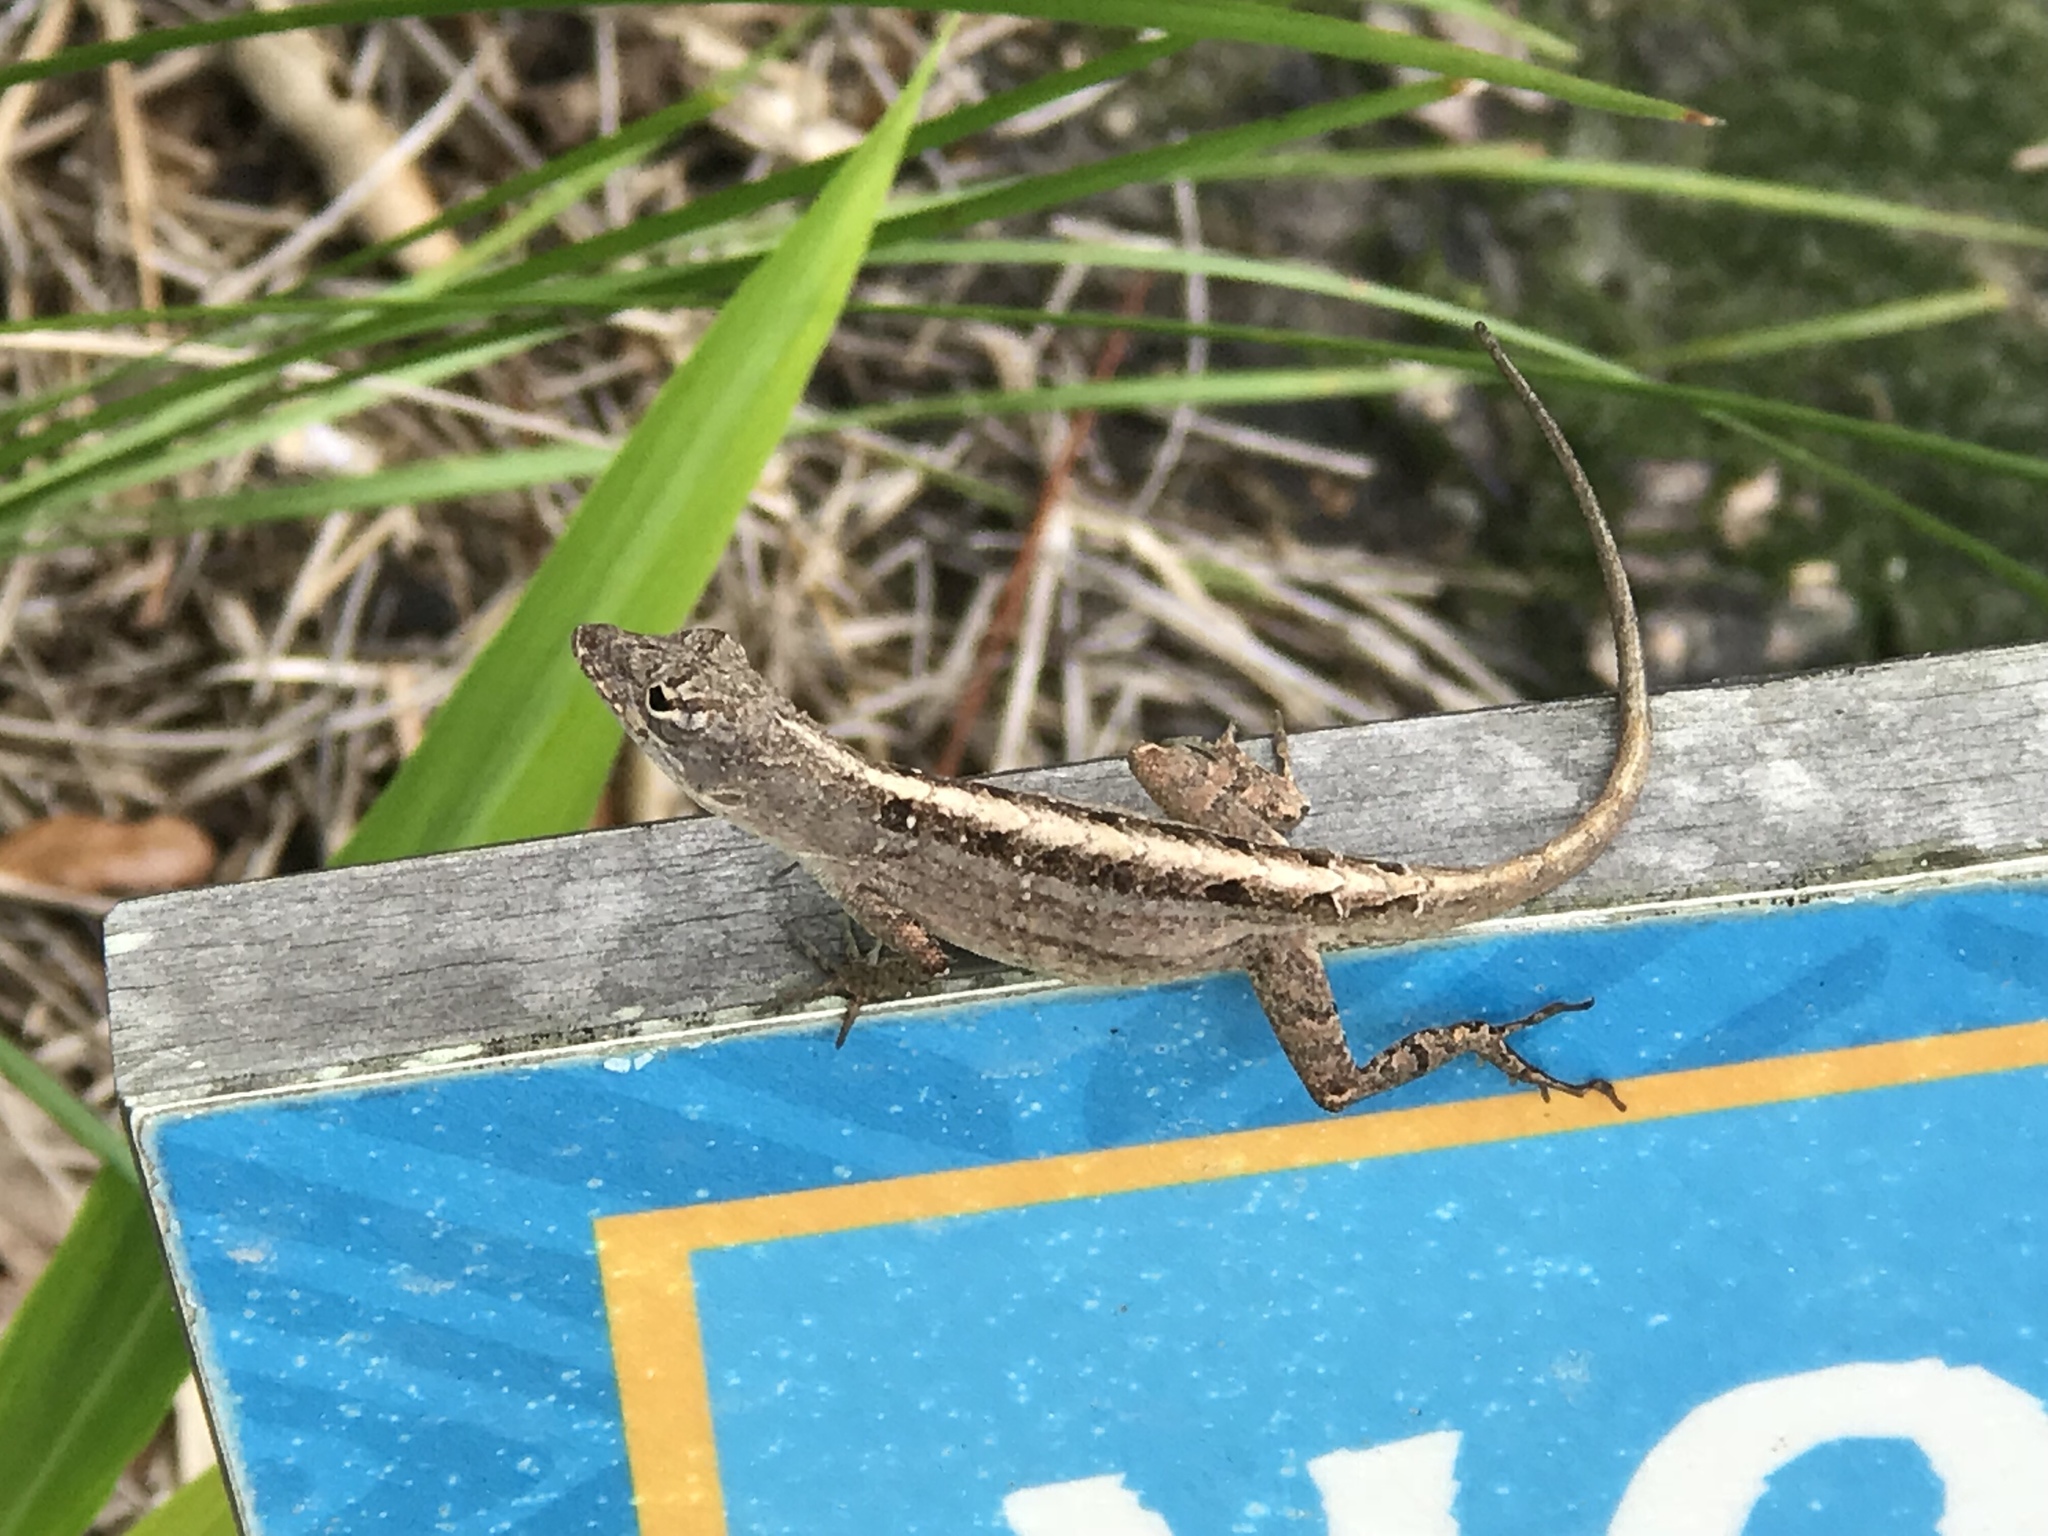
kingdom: Animalia
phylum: Chordata
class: Squamata
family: Dactyloidae
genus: Anolis
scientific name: Anolis sagrei
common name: Brown anole
